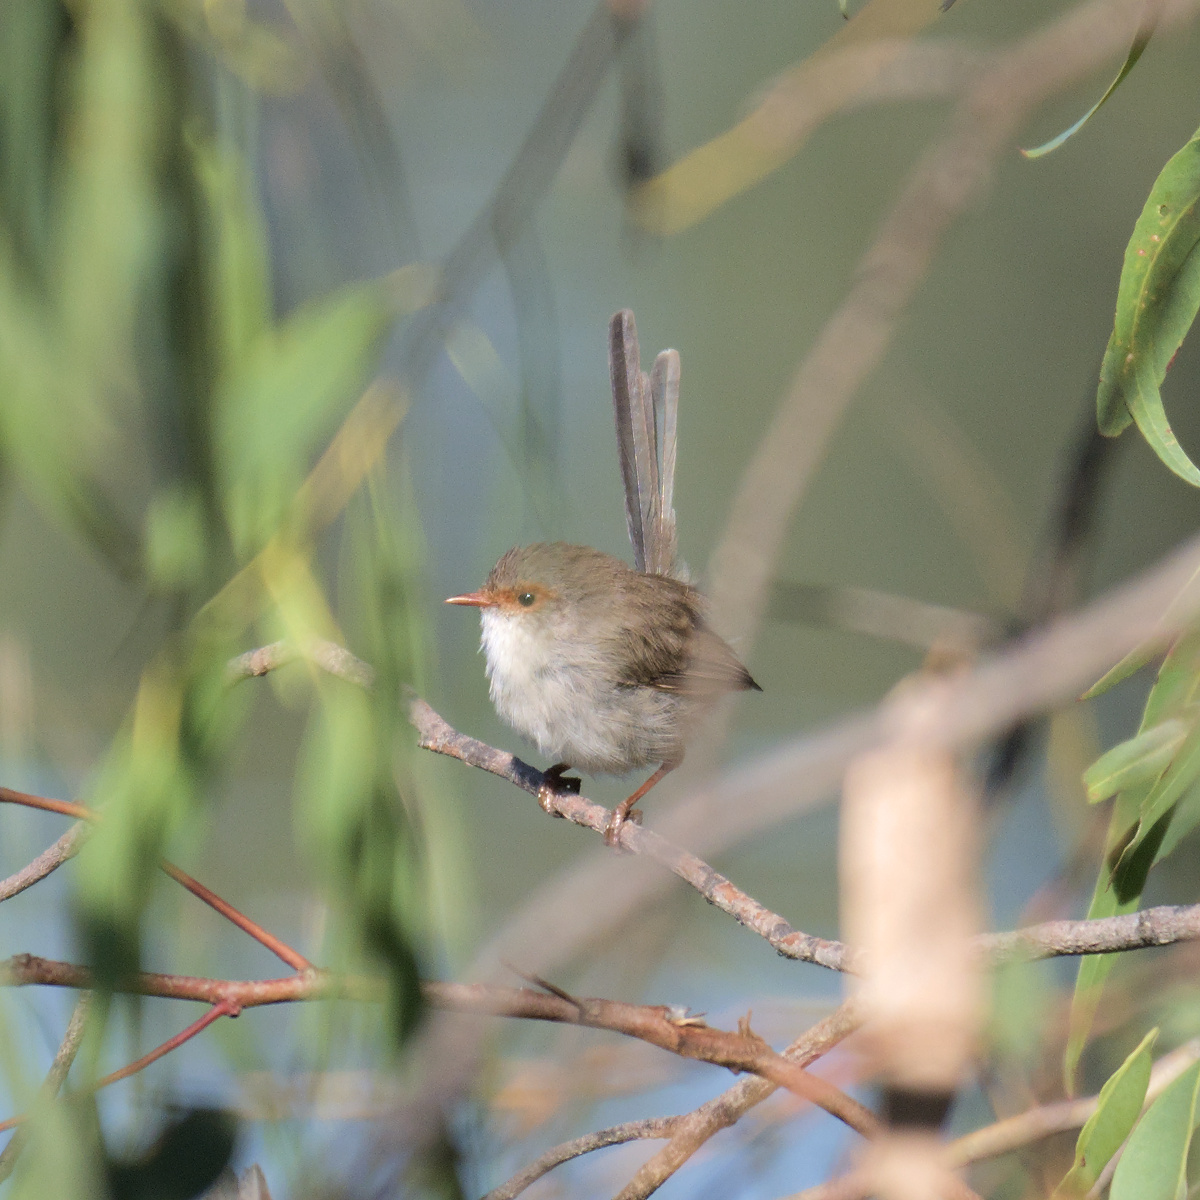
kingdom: Animalia
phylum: Chordata
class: Aves
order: Passeriformes
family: Maluridae
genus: Malurus
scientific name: Malurus cyaneus
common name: Superb fairywren
